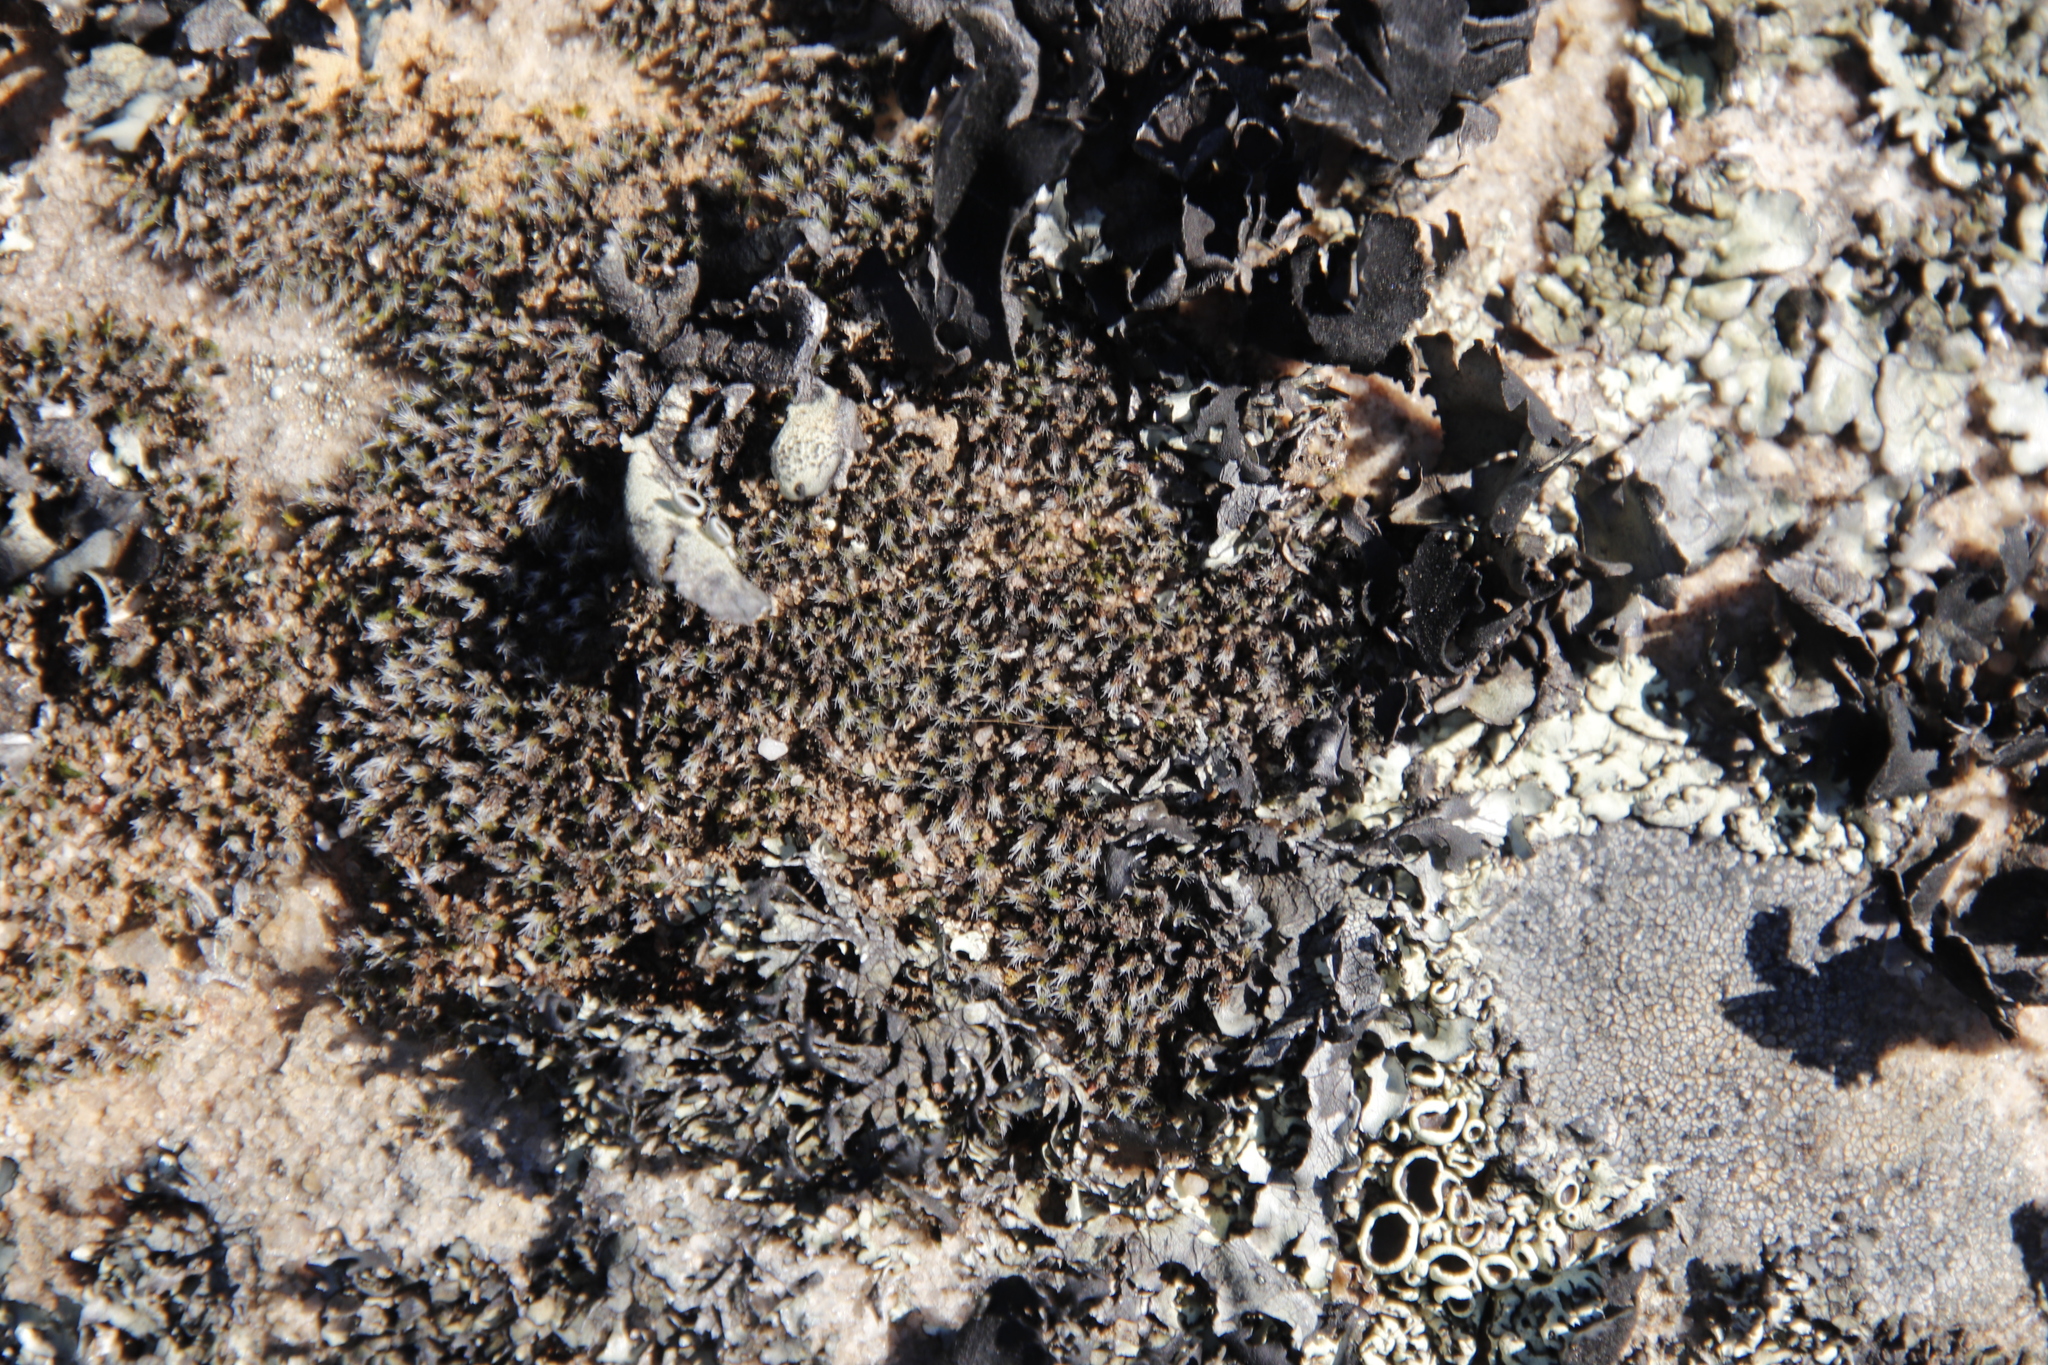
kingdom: Plantae
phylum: Bryophyta
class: Bryopsida
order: Grimmiales
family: Grimmiaceae
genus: Grimmia
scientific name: Grimmia laevigata
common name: Hoary grimmia
